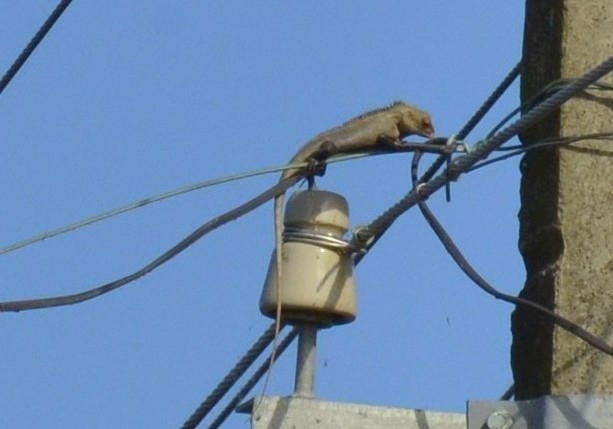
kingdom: Animalia
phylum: Chordata
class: Squamata
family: Agamidae
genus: Calotes
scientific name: Calotes versicolor
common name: Oriental garden lizard
